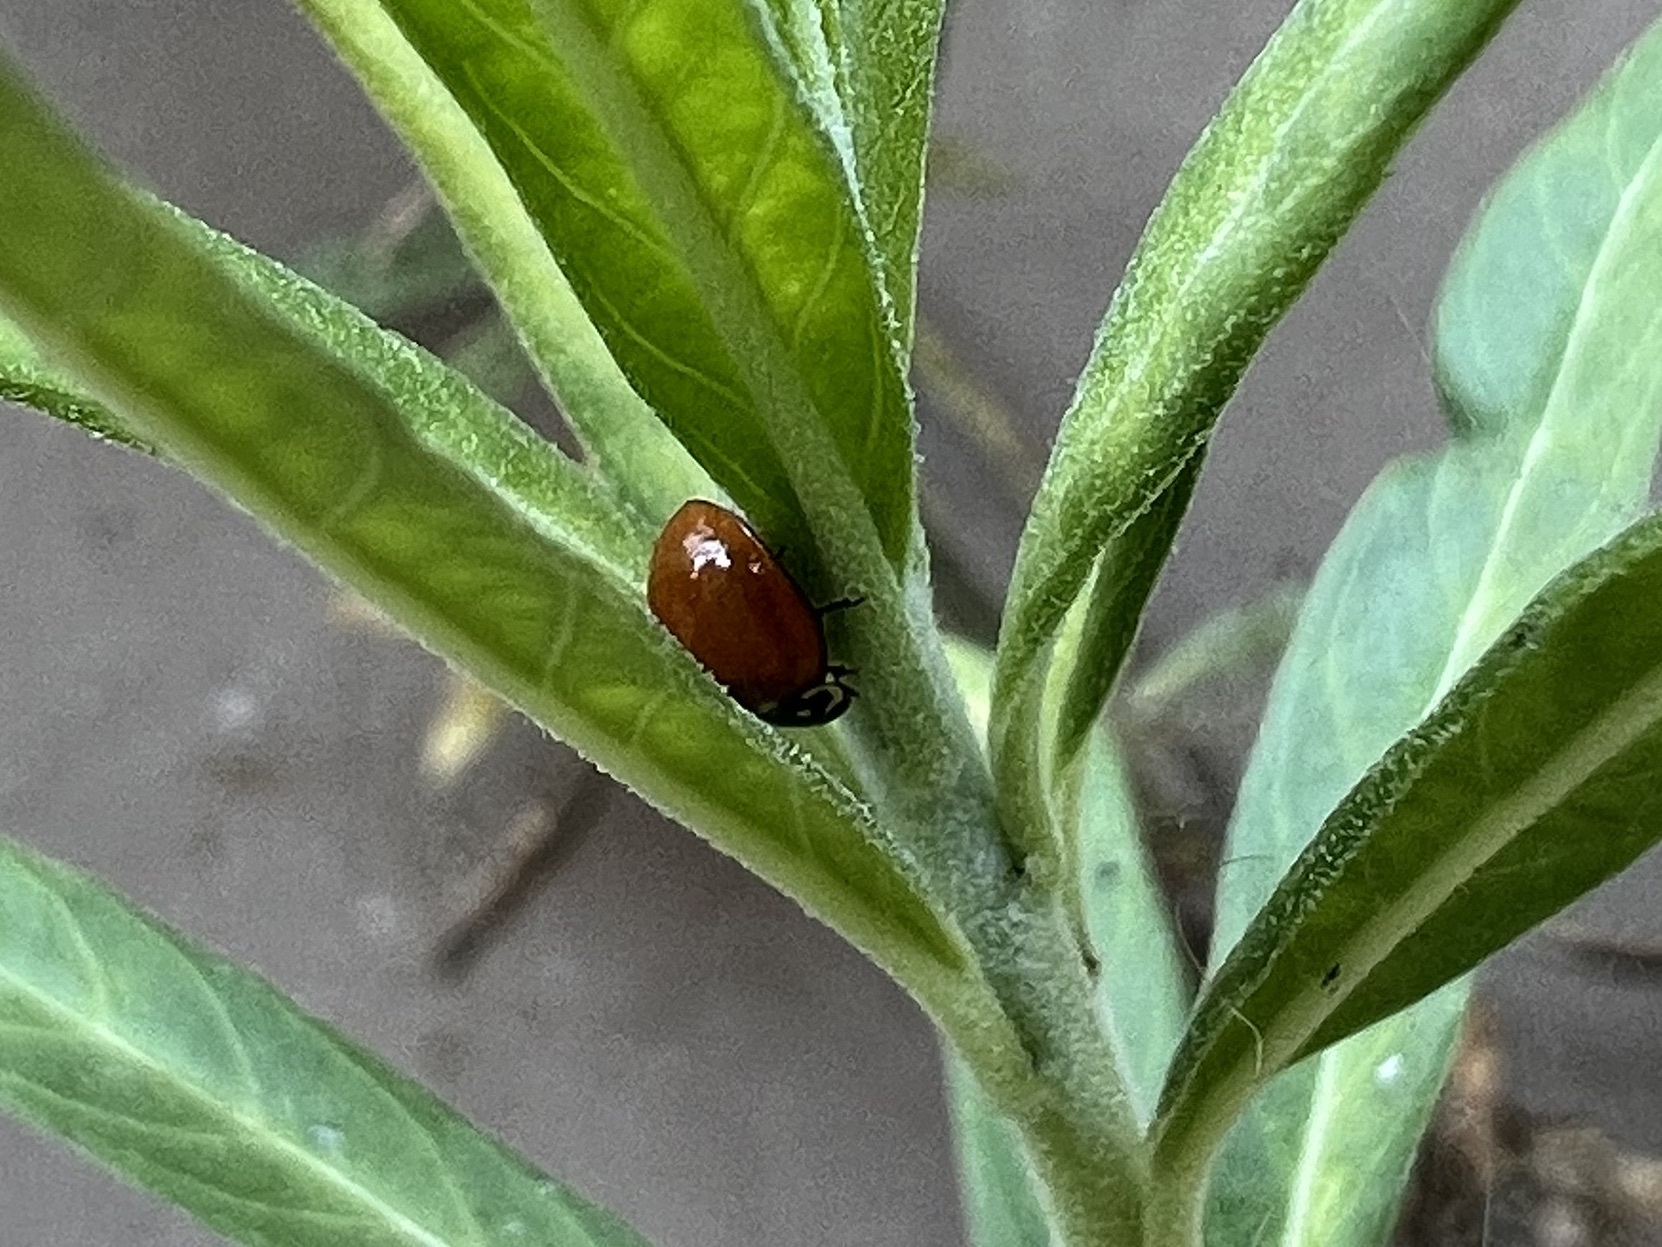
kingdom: Animalia
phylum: Arthropoda
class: Insecta
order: Coleoptera
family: Coccinellidae
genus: Cycloneda
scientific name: Cycloneda sanguinea
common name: Ladybird beetle
